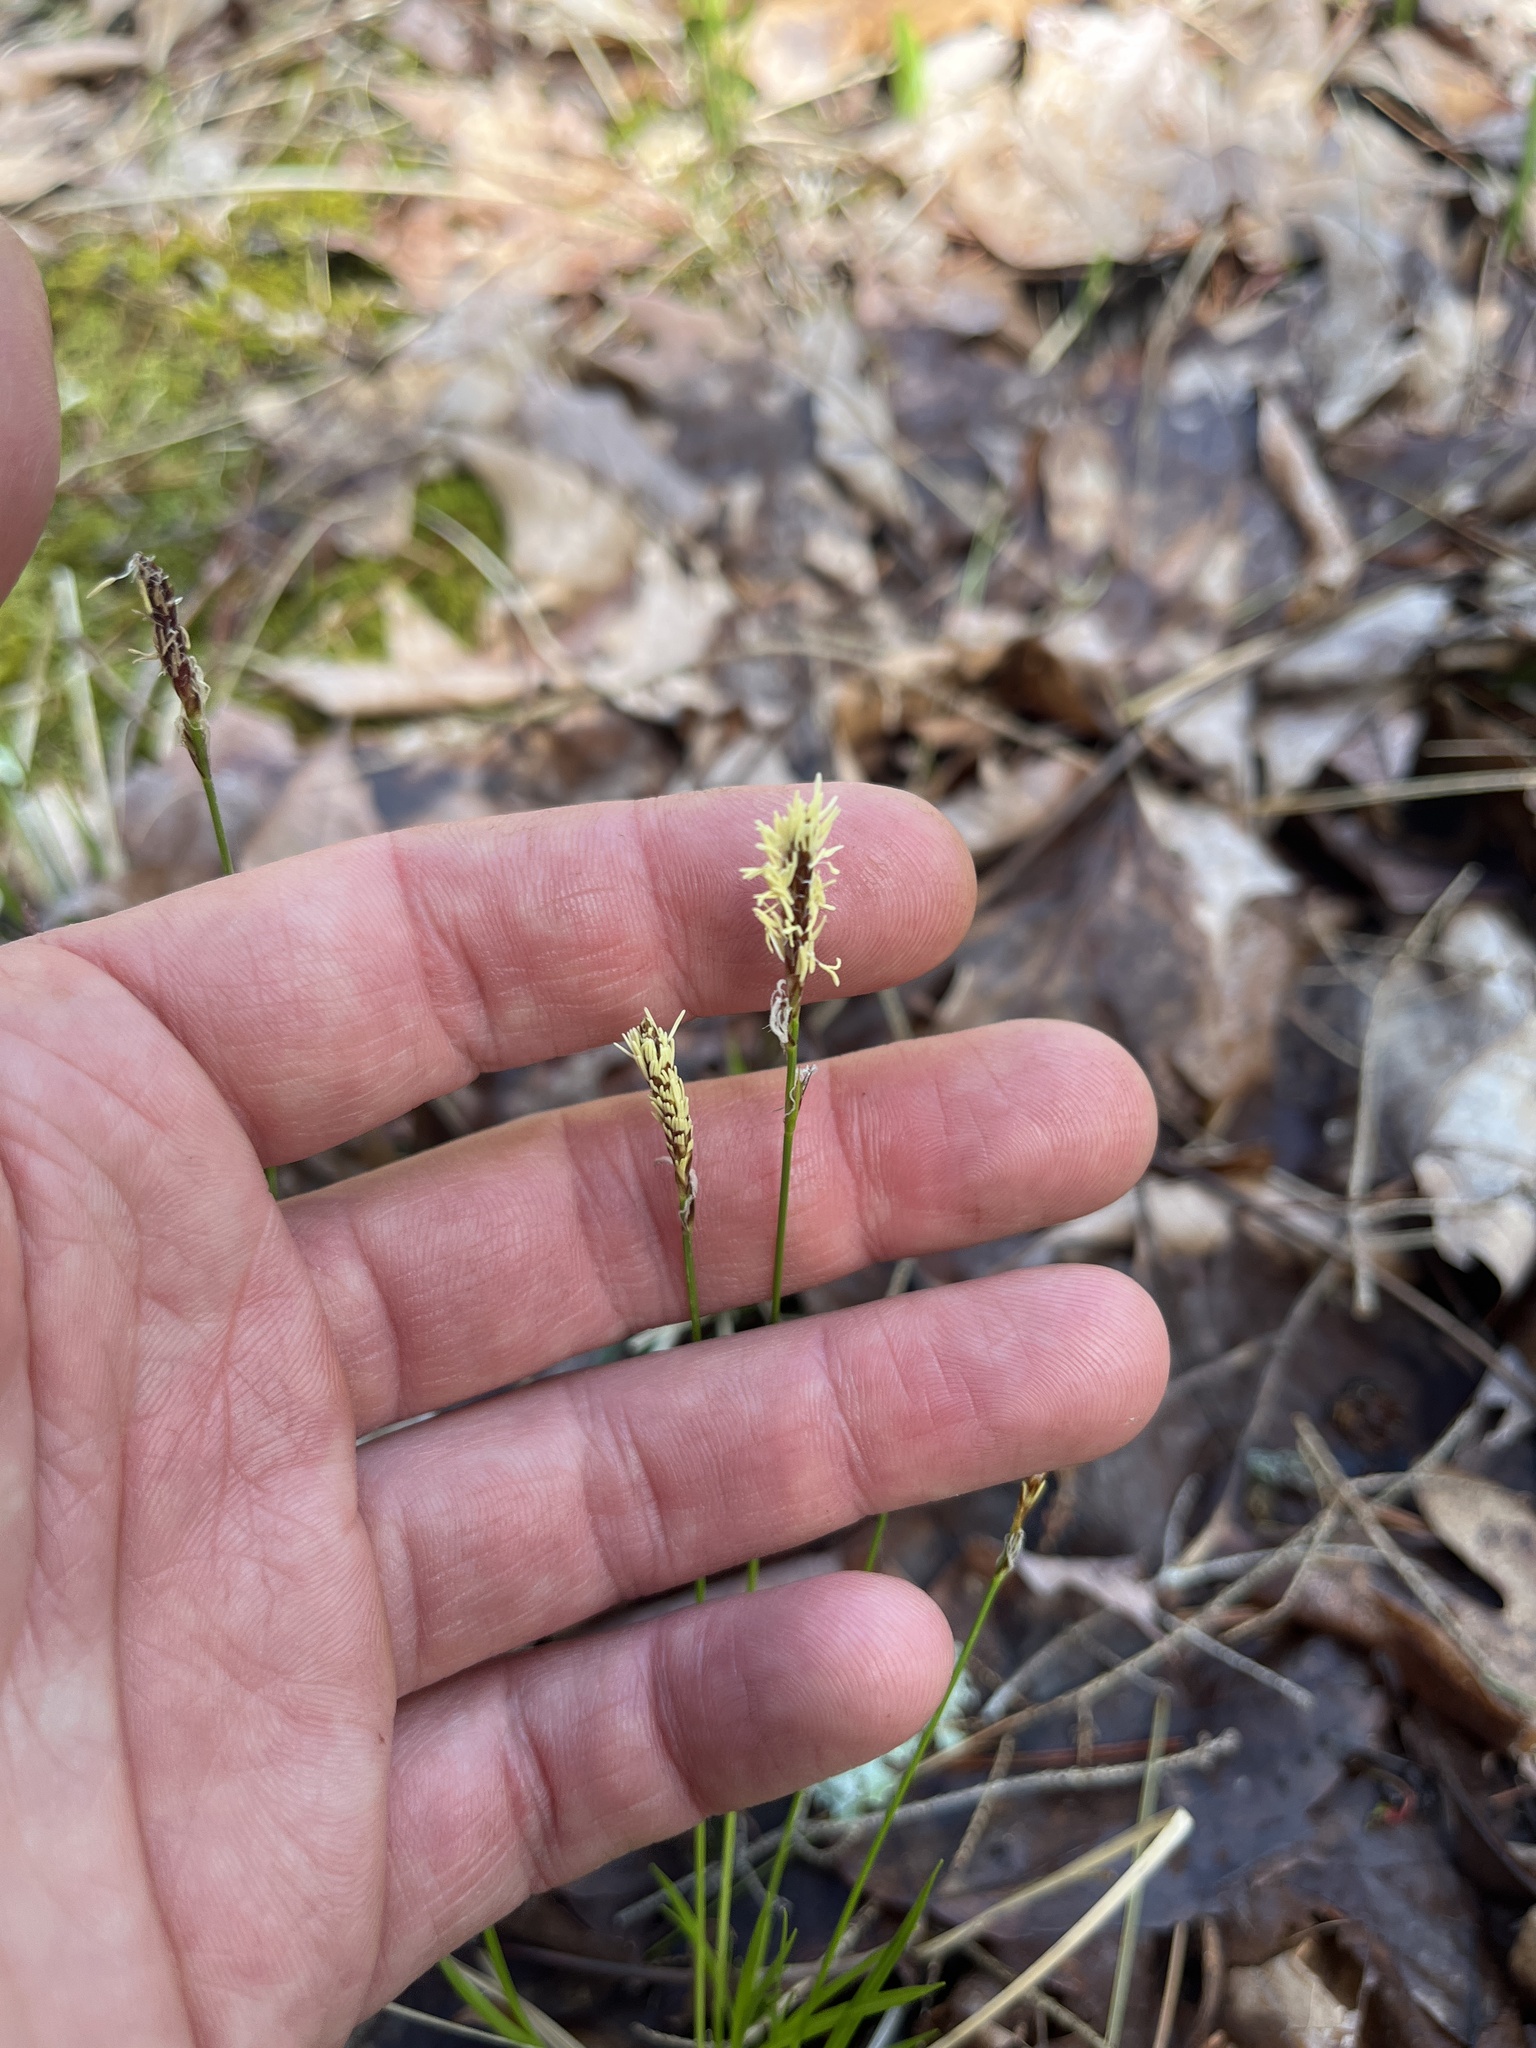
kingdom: Plantae
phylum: Tracheophyta
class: Liliopsida
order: Poales
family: Cyperaceae
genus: Carex
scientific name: Carex pensylvanica
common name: Common oak sedge
